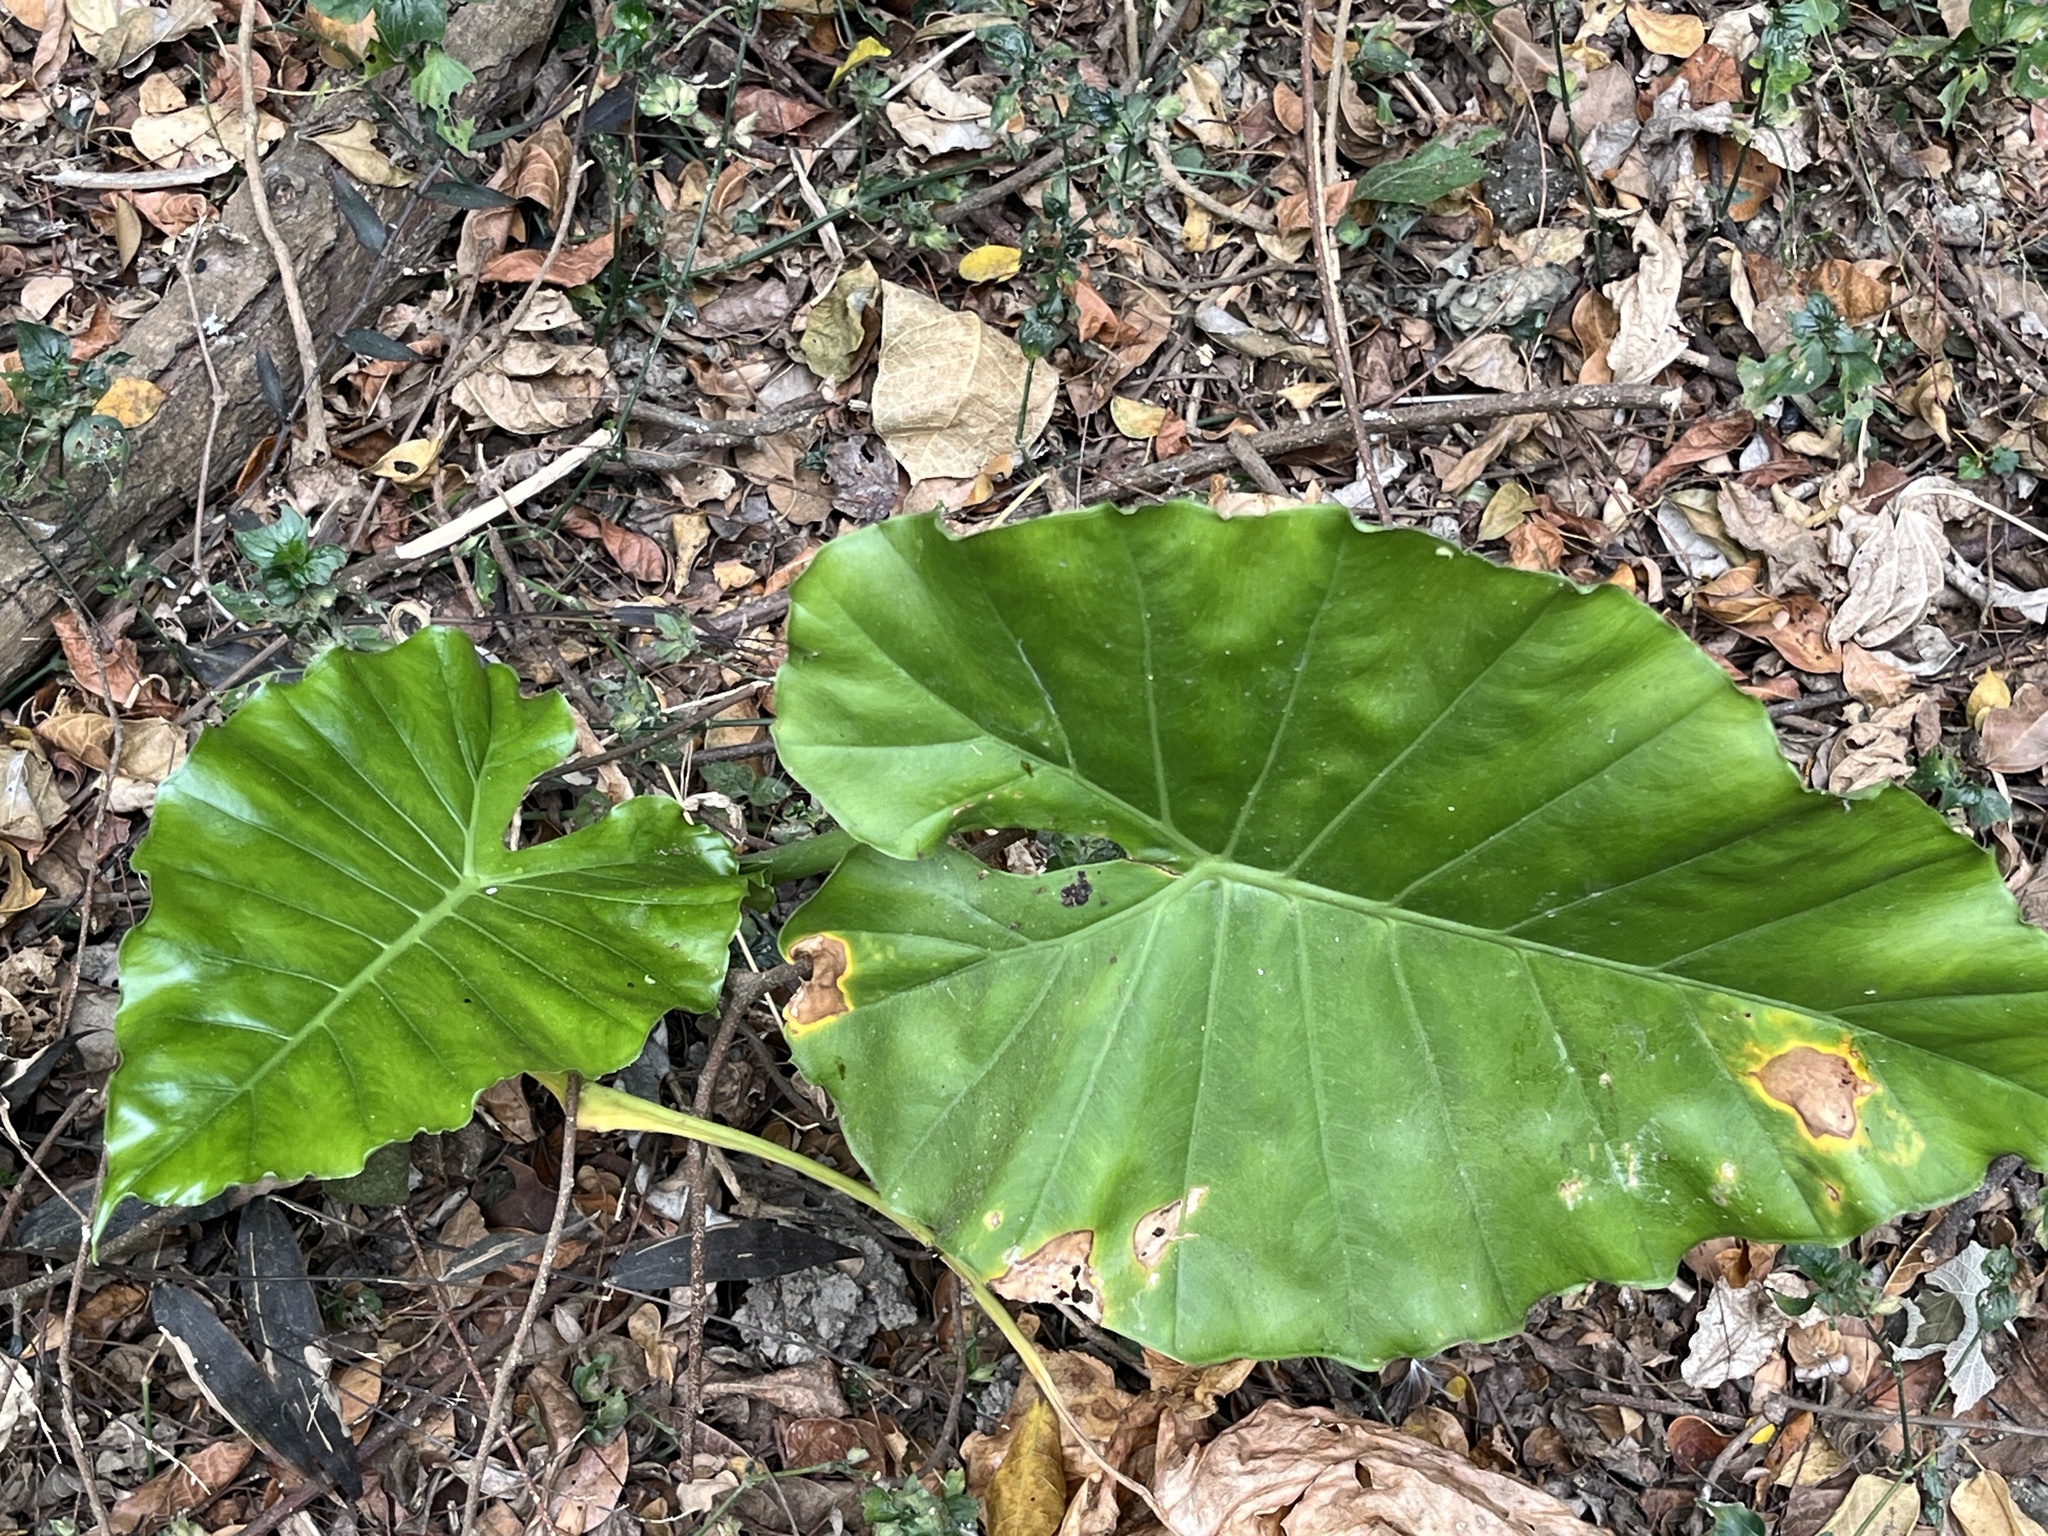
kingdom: Plantae
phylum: Tracheophyta
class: Liliopsida
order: Alismatales
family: Araceae
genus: Alocasia
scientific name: Alocasia odora
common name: Asian taro
